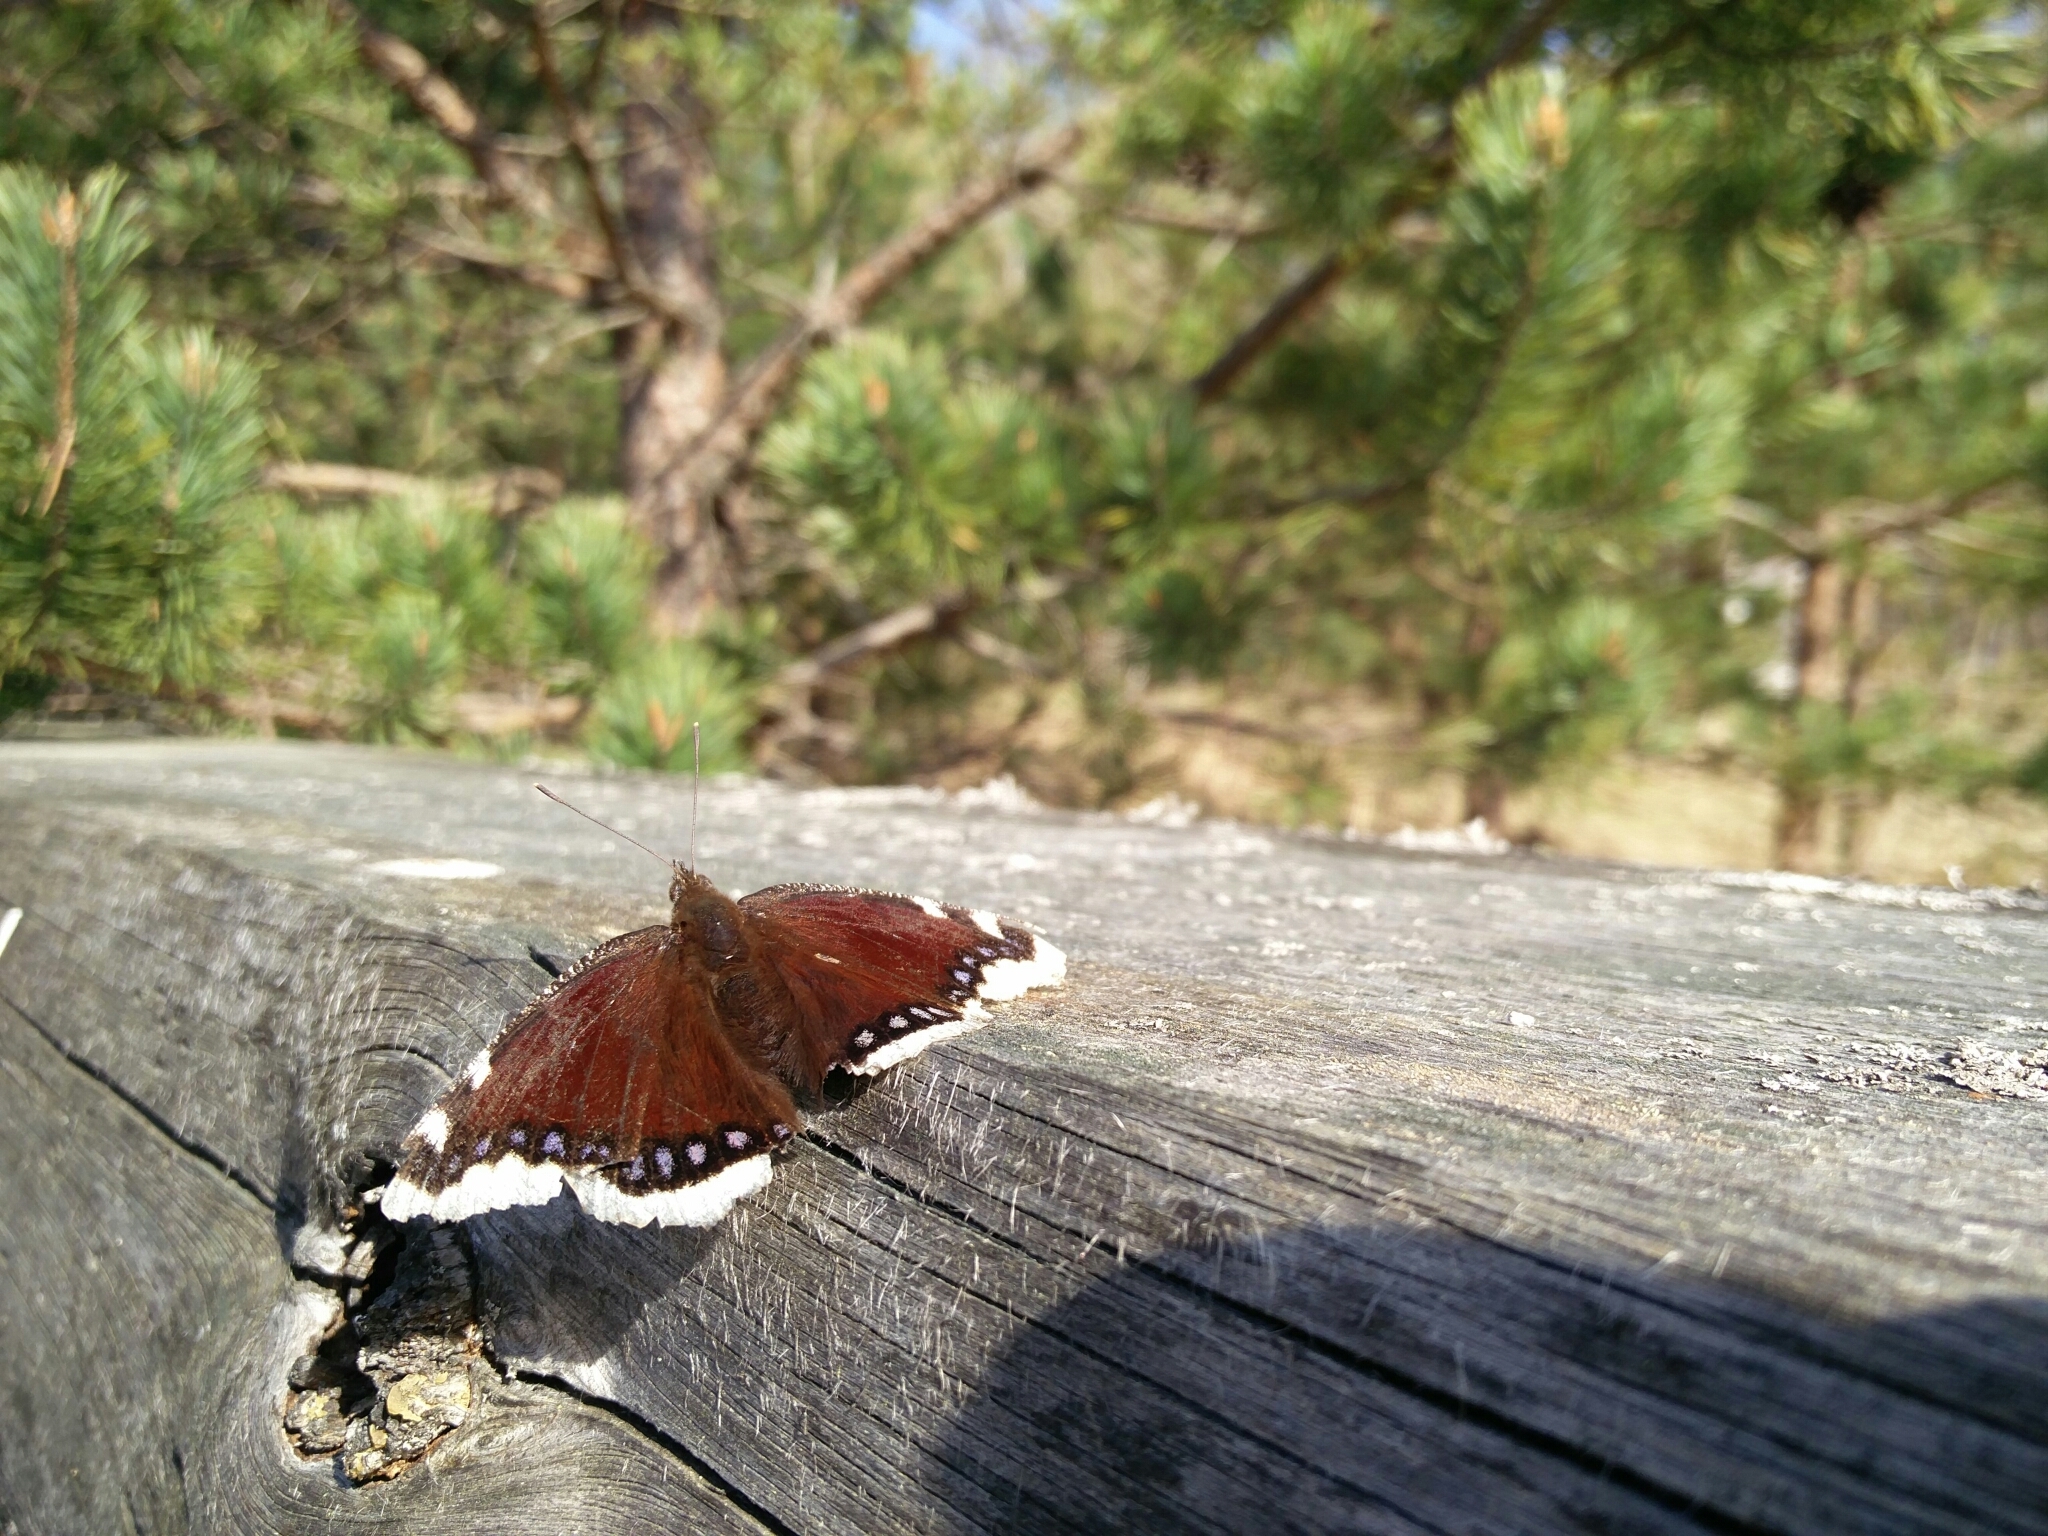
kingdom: Animalia
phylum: Arthropoda
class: Insecta
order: Lepidoptera
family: Nymphalidae
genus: Nymphalis
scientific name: Nymphalis antiopa
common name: Camberwell beauty
